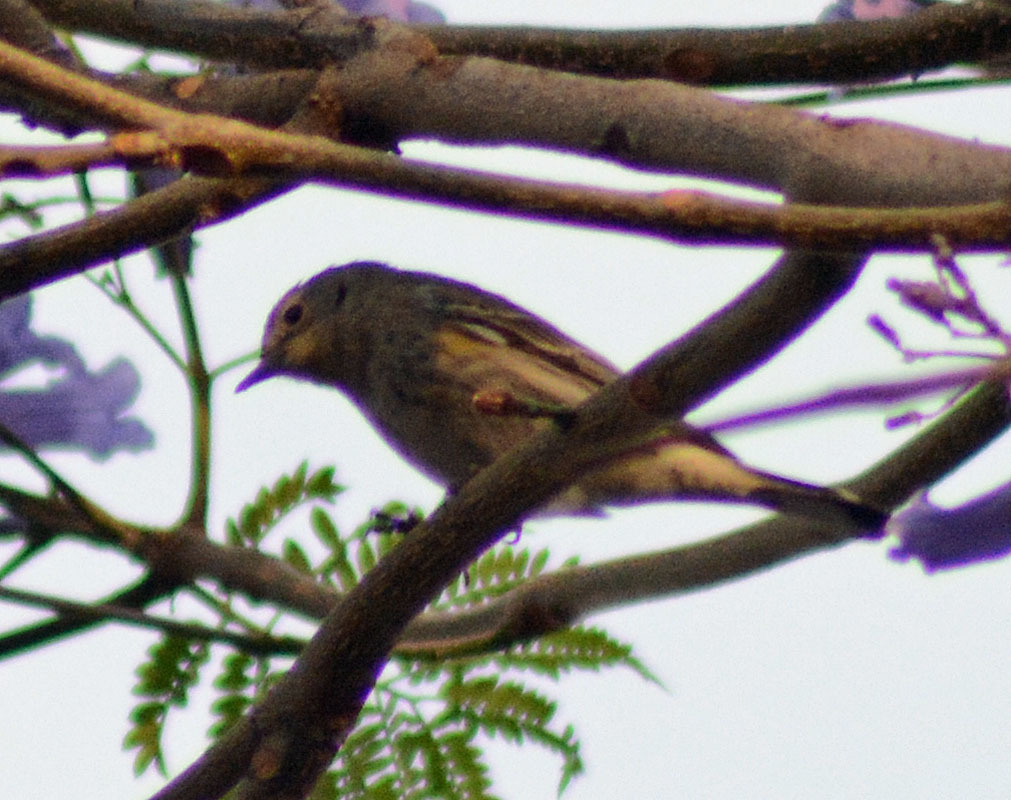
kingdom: Animalia
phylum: Chordata
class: Aves
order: Passeriformes
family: Parulidae
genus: Setophaga
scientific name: Setophaga coronata
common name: Myrtle warbler
